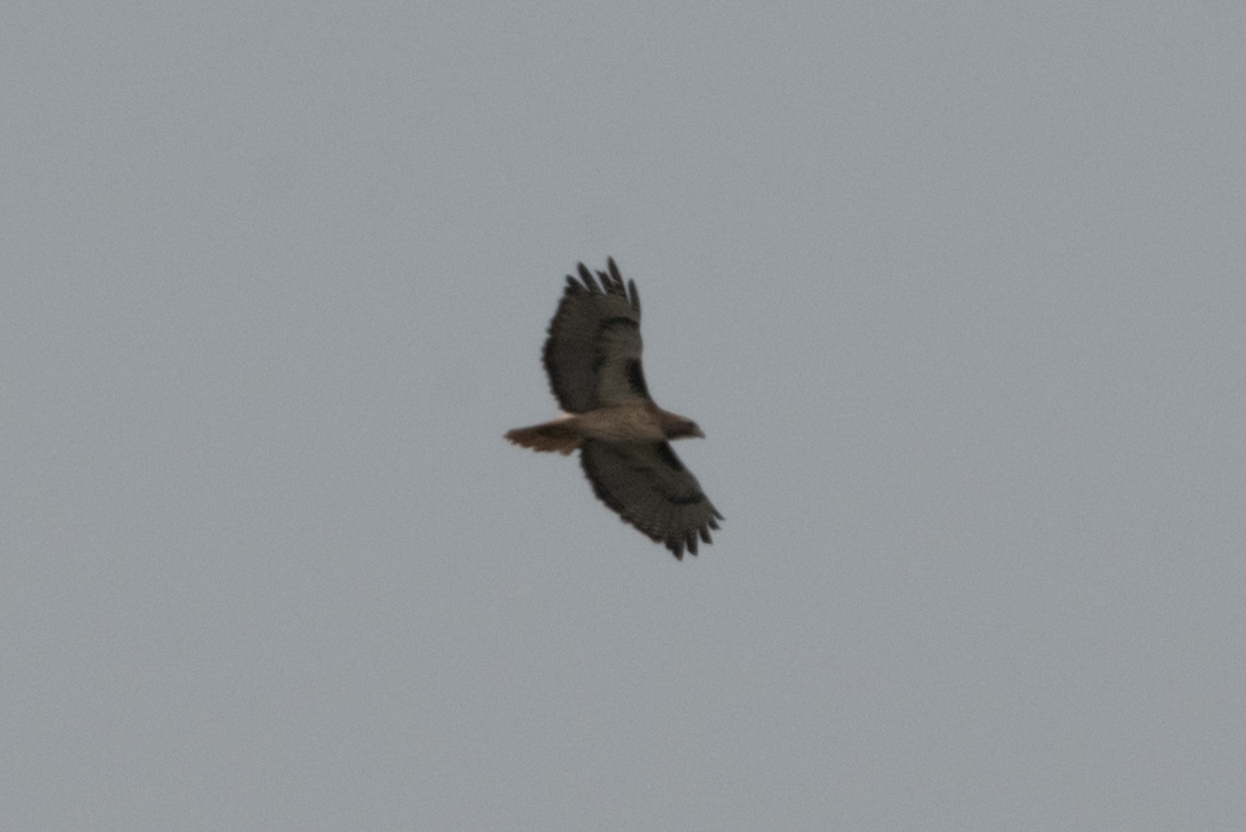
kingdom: Animalia
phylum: Chordata
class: Aves
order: Accipitriformes
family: Accipitridae
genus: Buteo
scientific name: Buteo jamaicensis
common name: Red-tailed hawk
